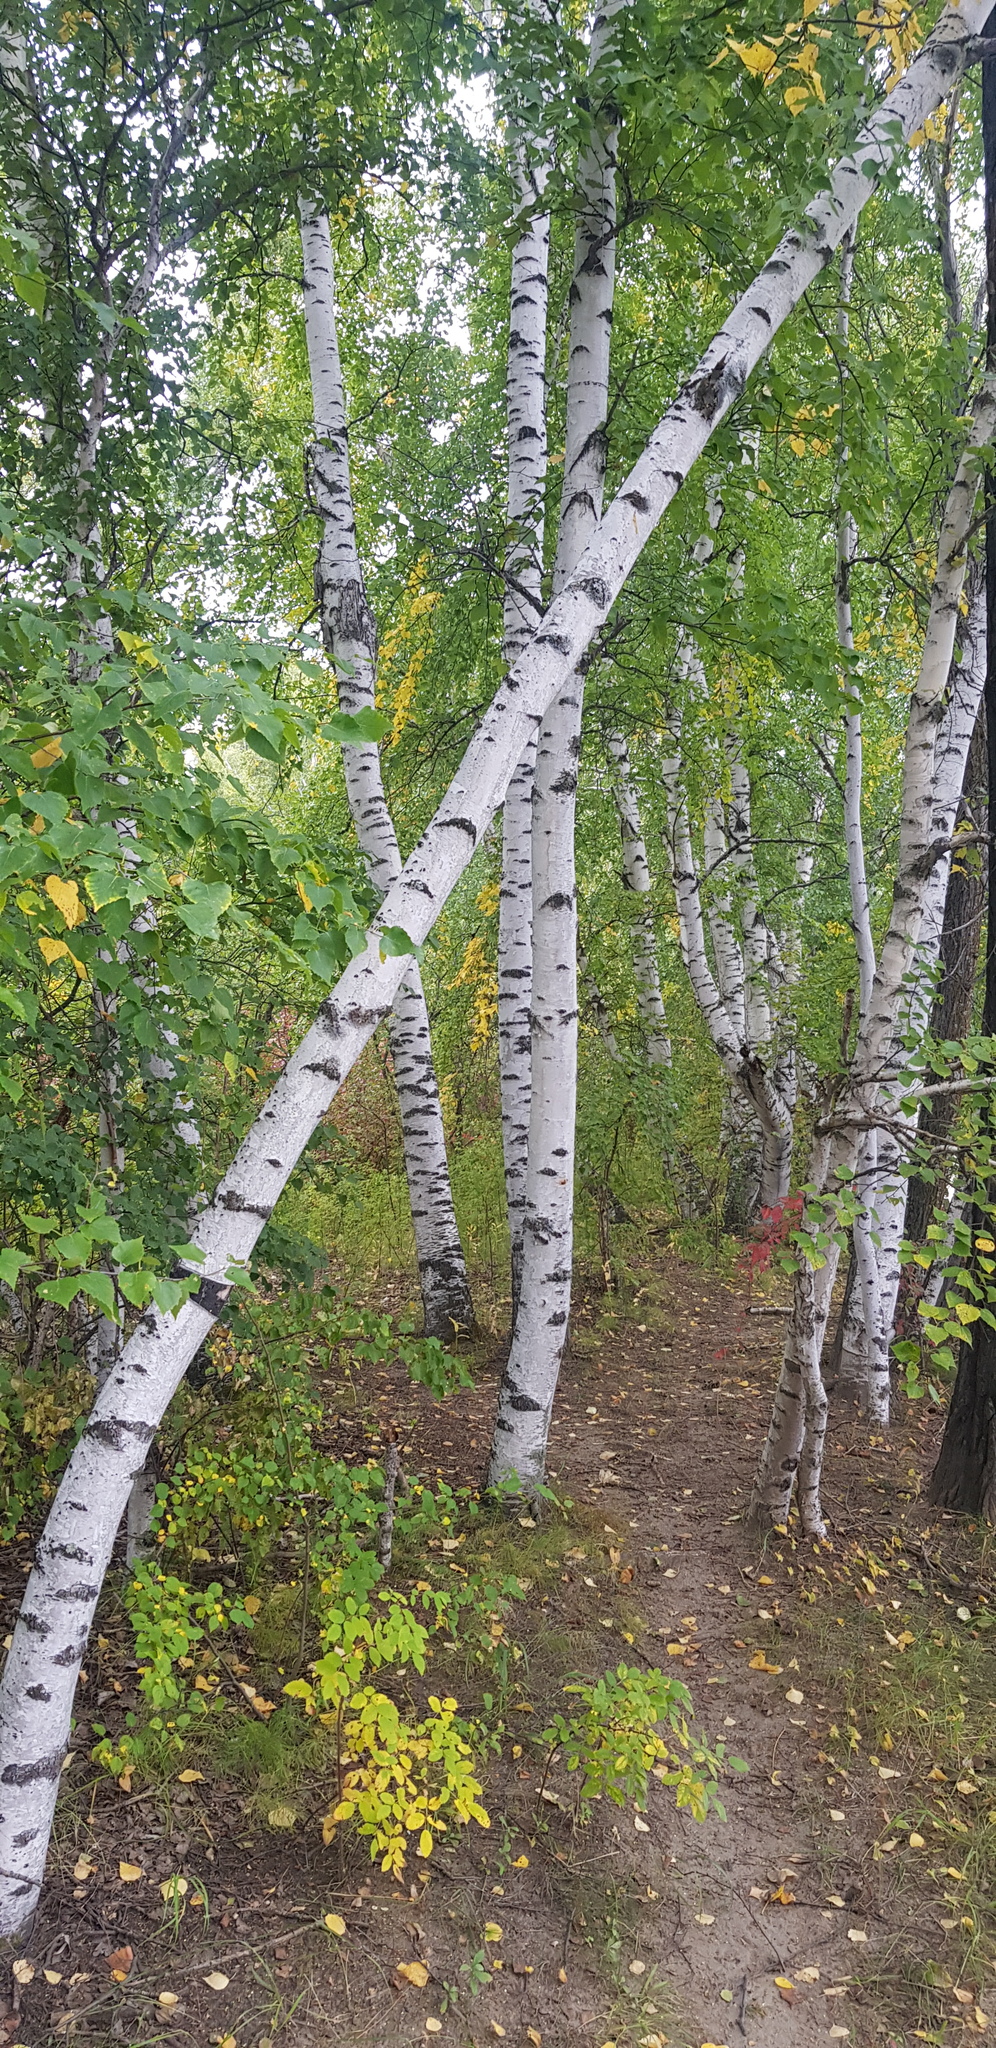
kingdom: Plantae
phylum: Tracheophyta
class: Magnoliopsida
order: Fagales
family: Betulaceae
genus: Betula
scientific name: Betula pendula
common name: Silver birch
